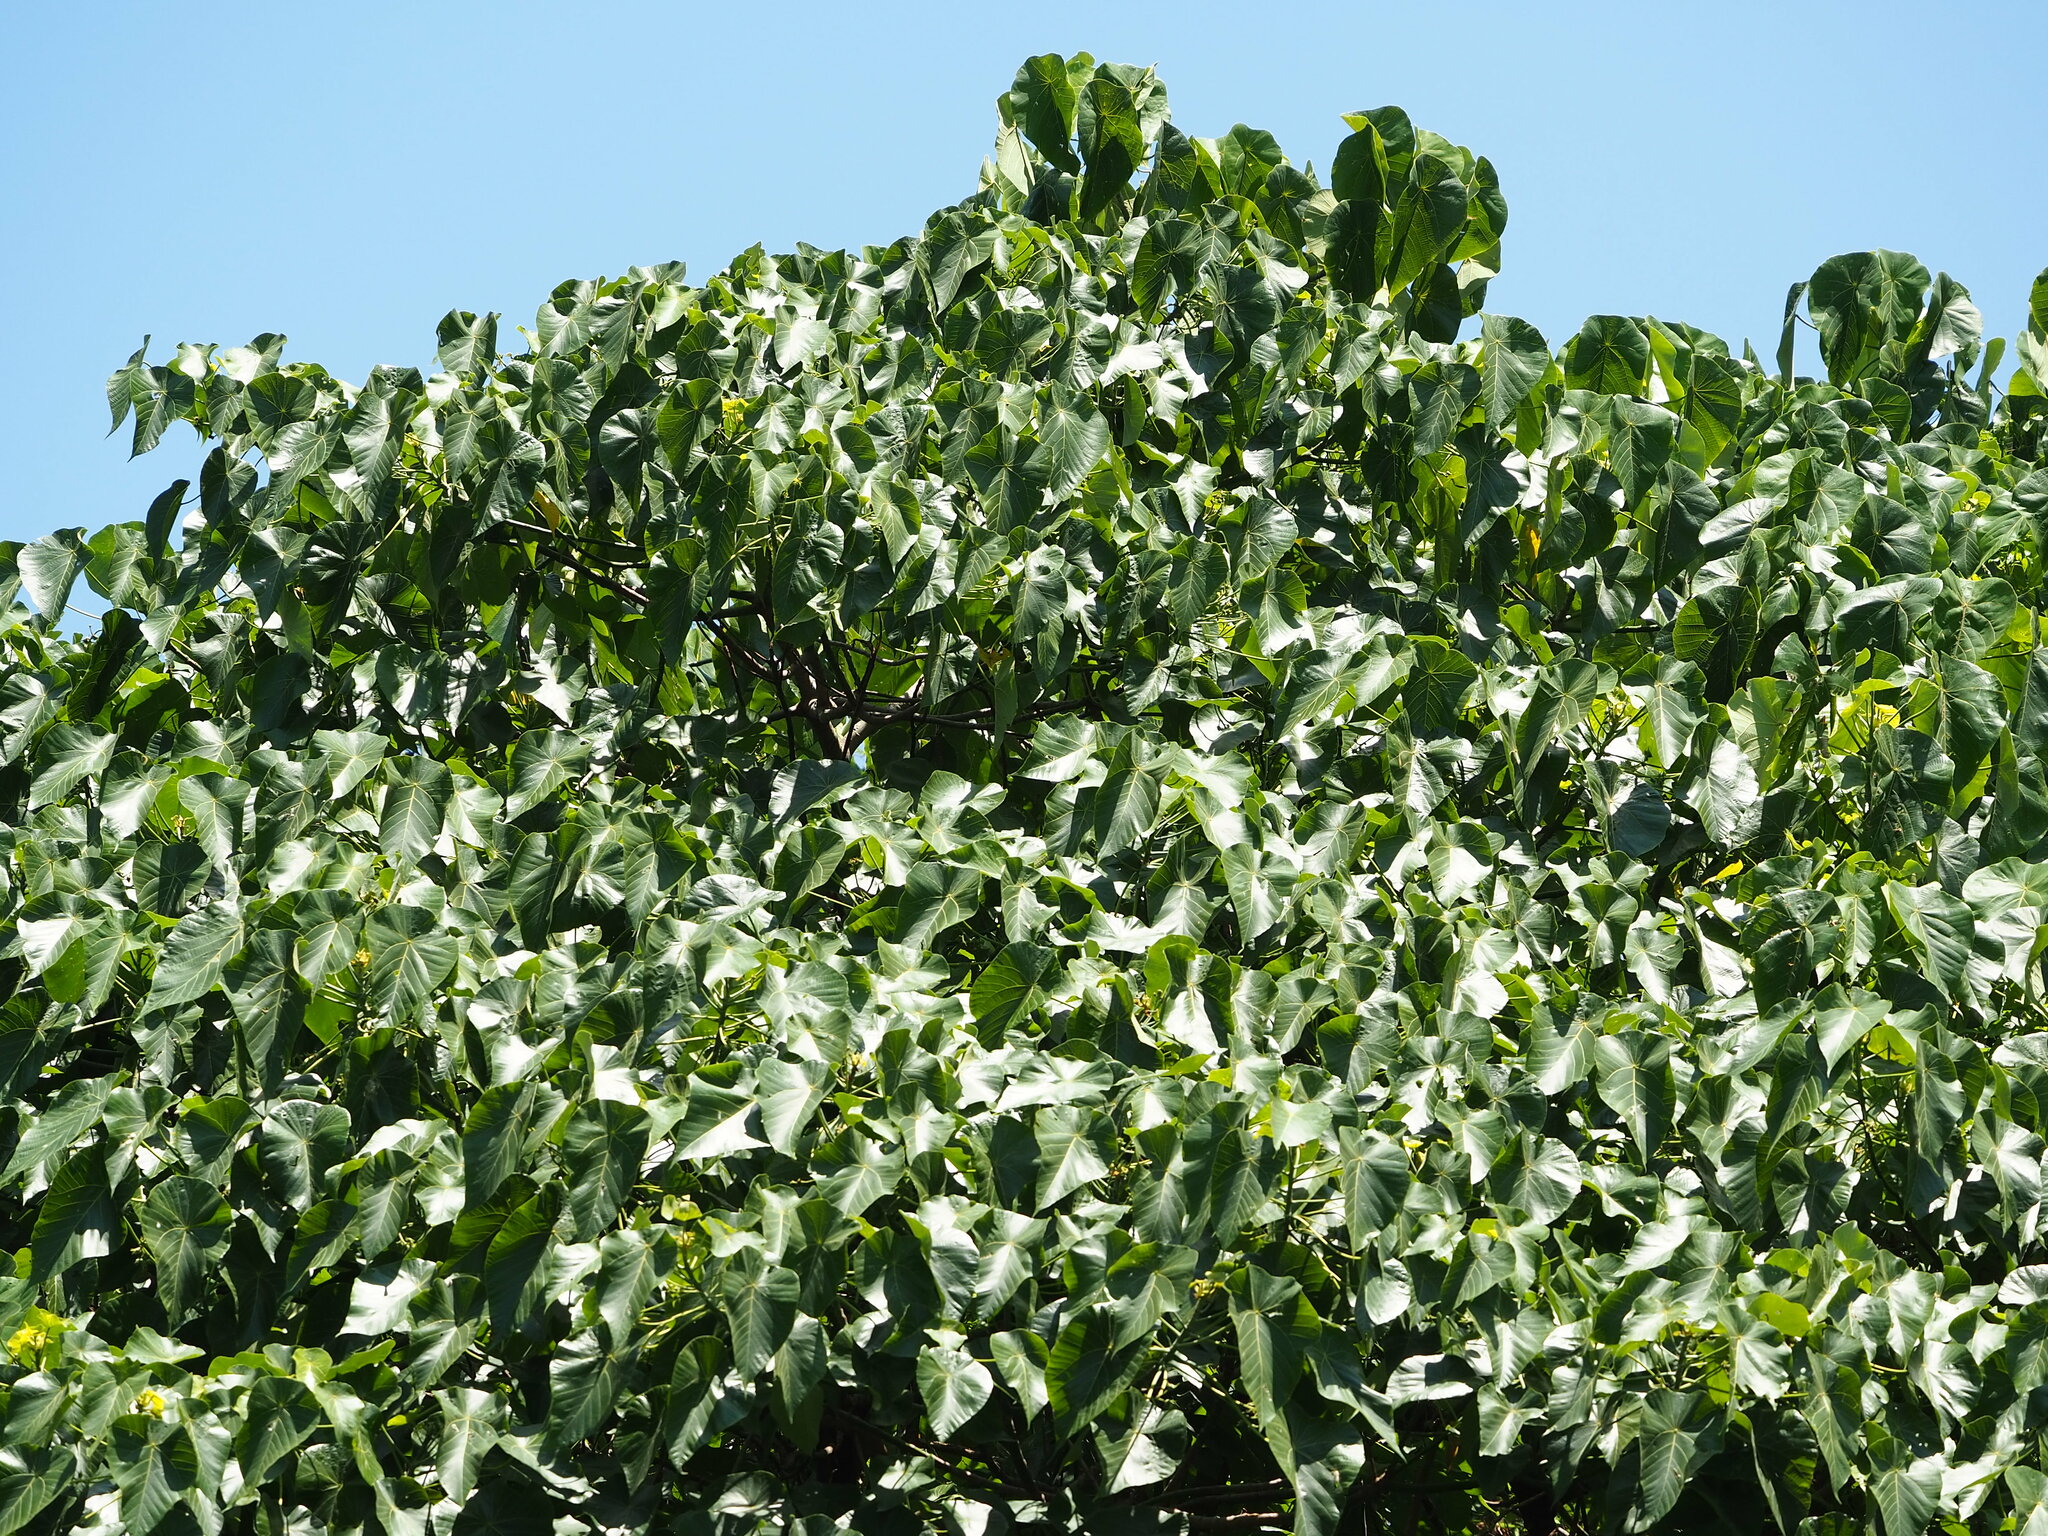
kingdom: Plantae
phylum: Tracheophyta
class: Magnoliopsida
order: Malpighiales
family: Euphorbiaceae
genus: Macaranga
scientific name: Macaranga tanarius
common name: Parasol leaf tree
